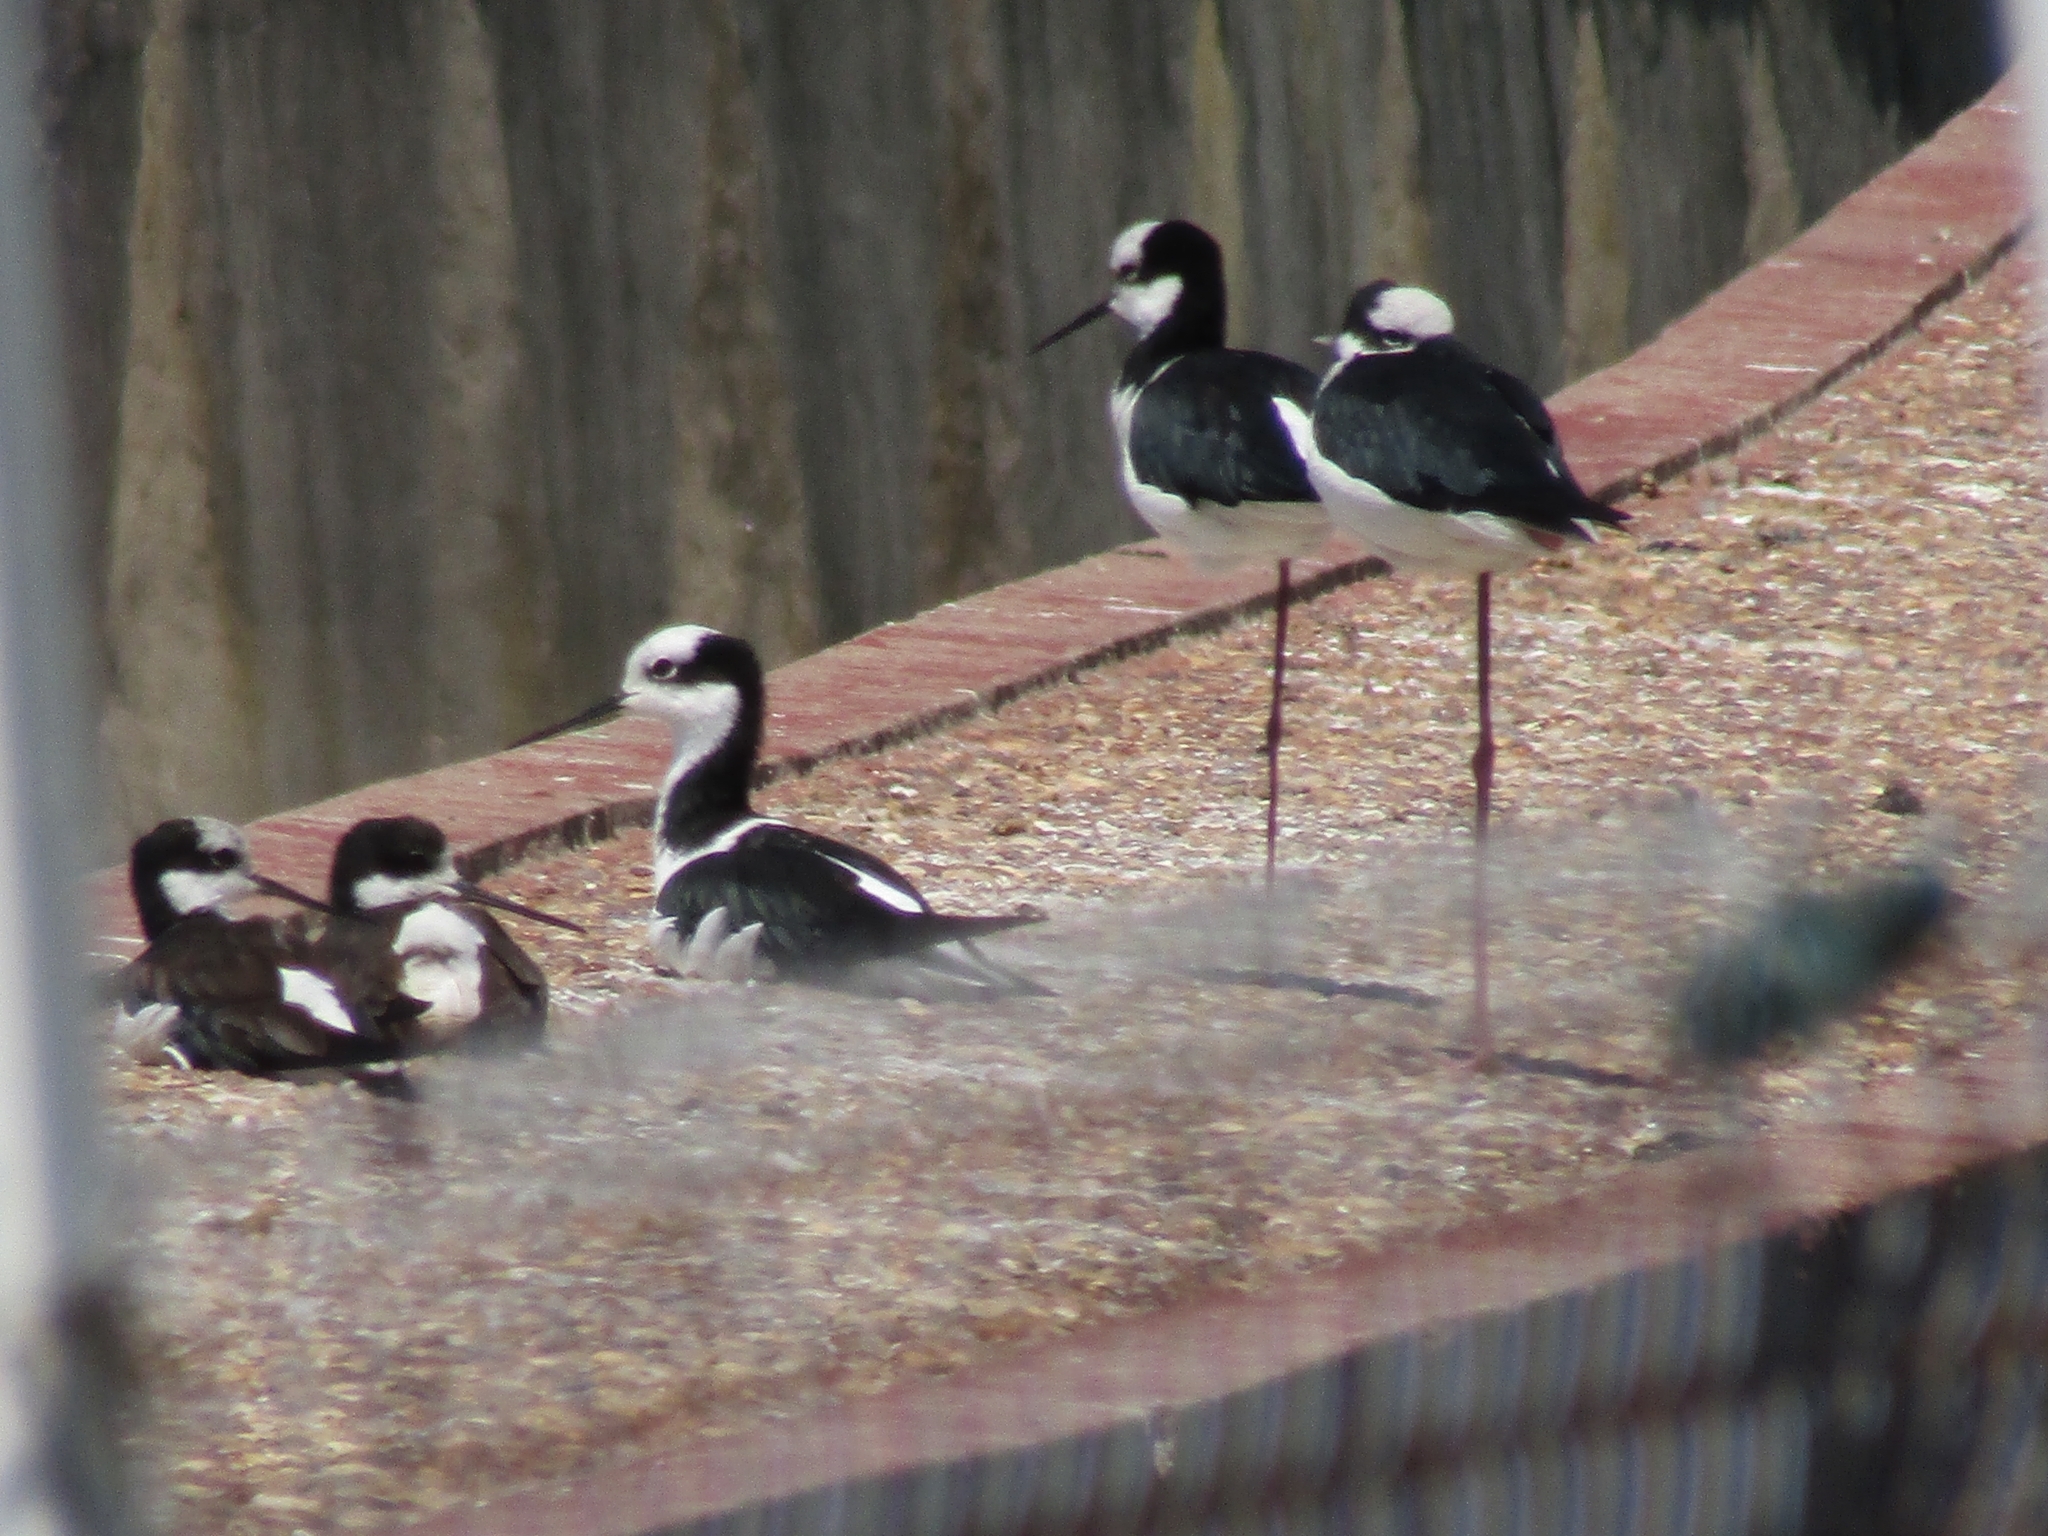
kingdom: Animalia
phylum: Chordata
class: Aves
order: Charadriiformes
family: Recurvirostridae
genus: Himantopus
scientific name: Himantopus mexicanus
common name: Black-necked stilt
